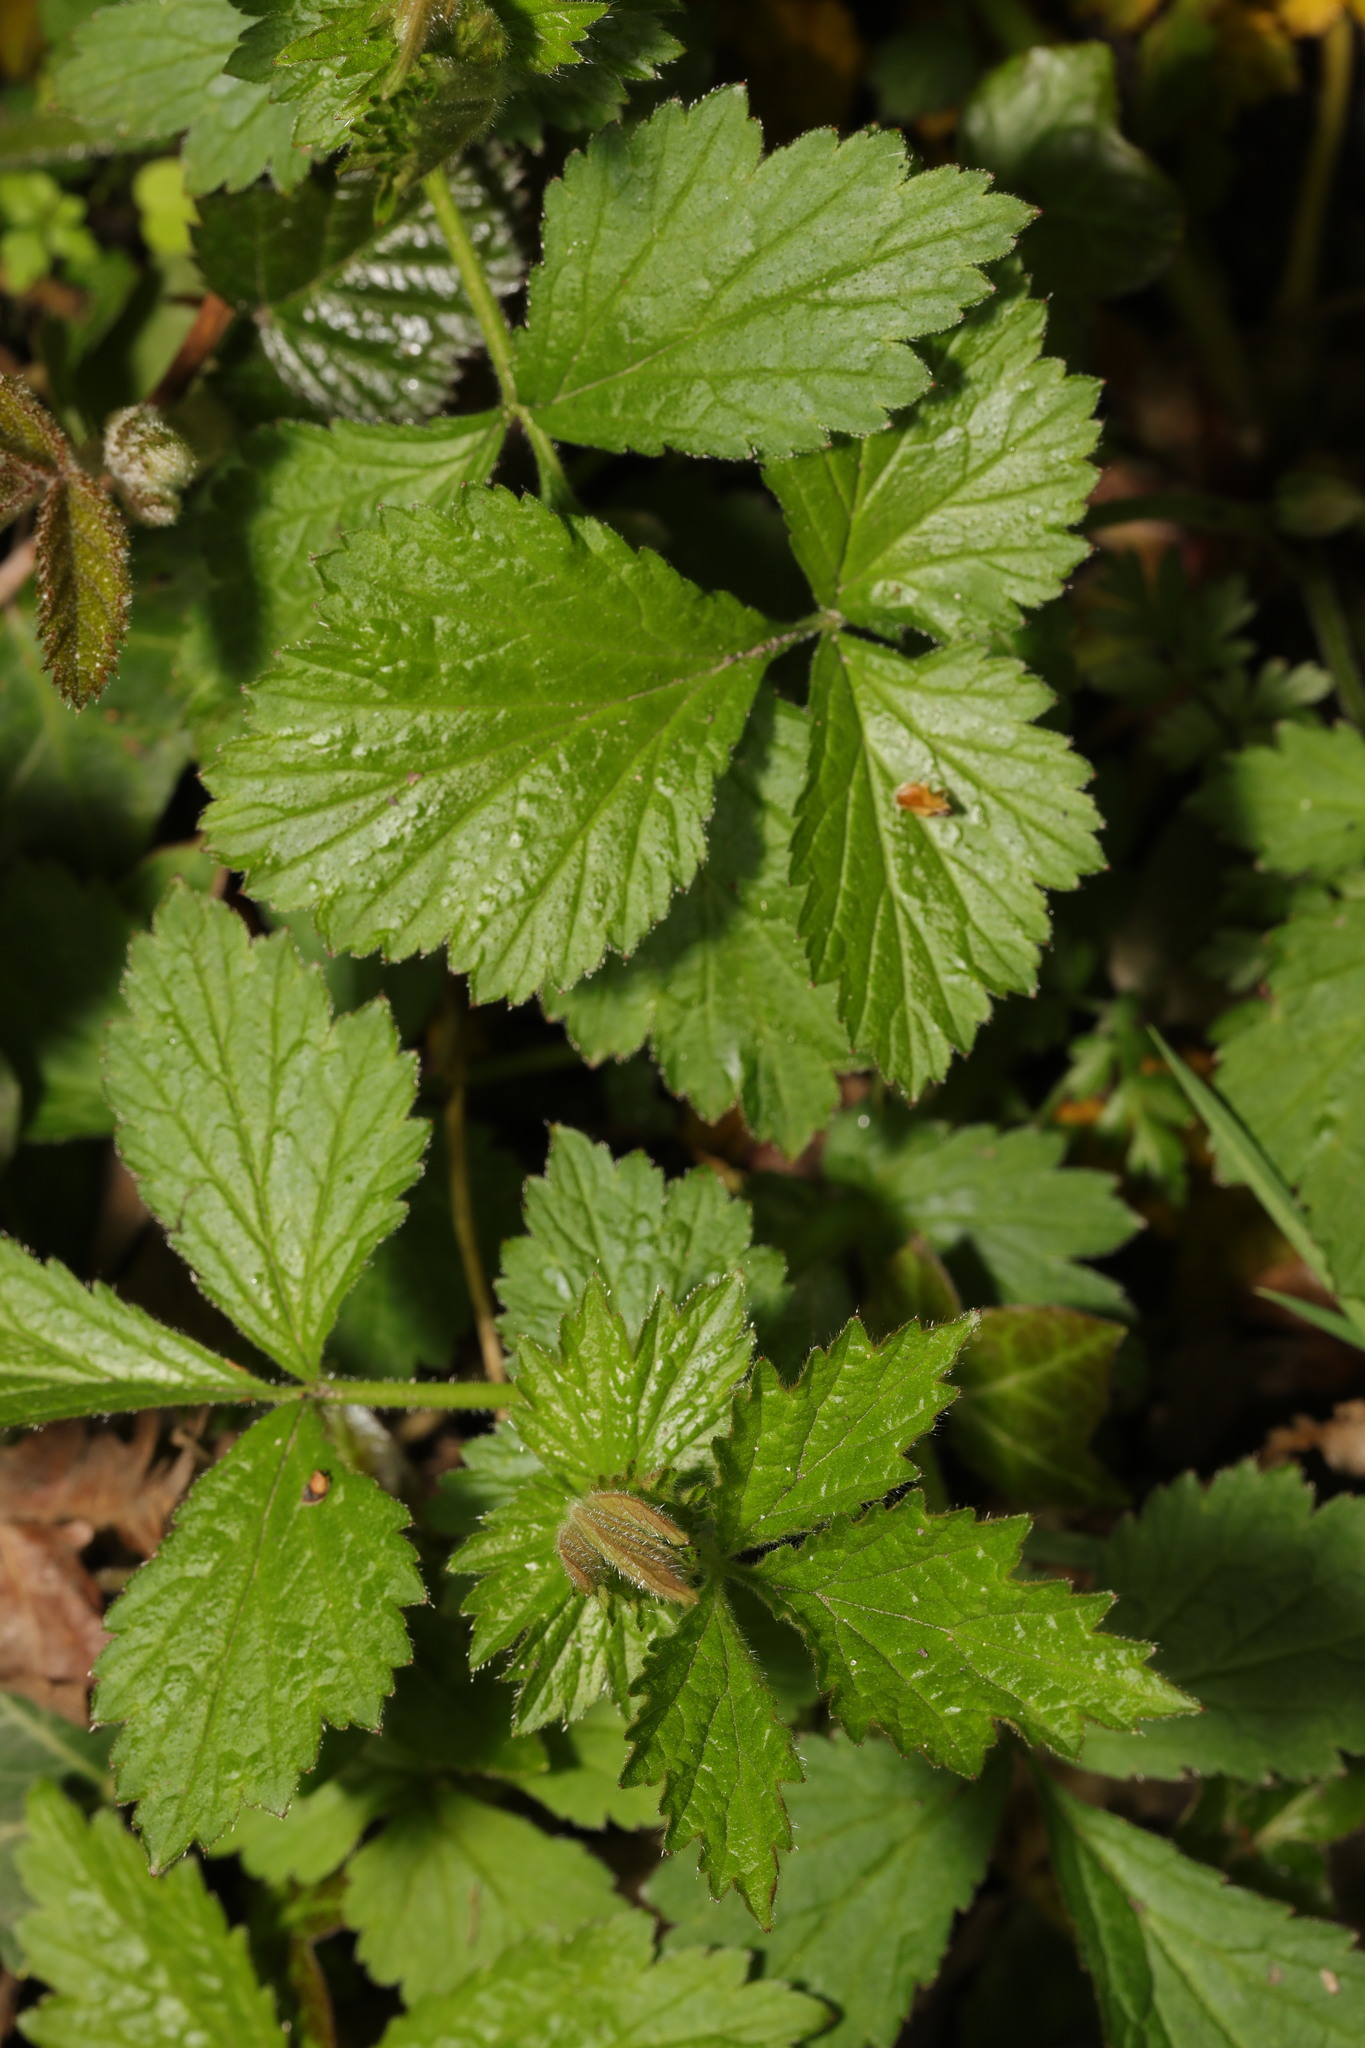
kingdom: Plantae
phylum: Tracheophyta
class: Magnoliopsida
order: Rosales
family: Rosaceae
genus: Geum
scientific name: Geum urbanum
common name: Wood avens
